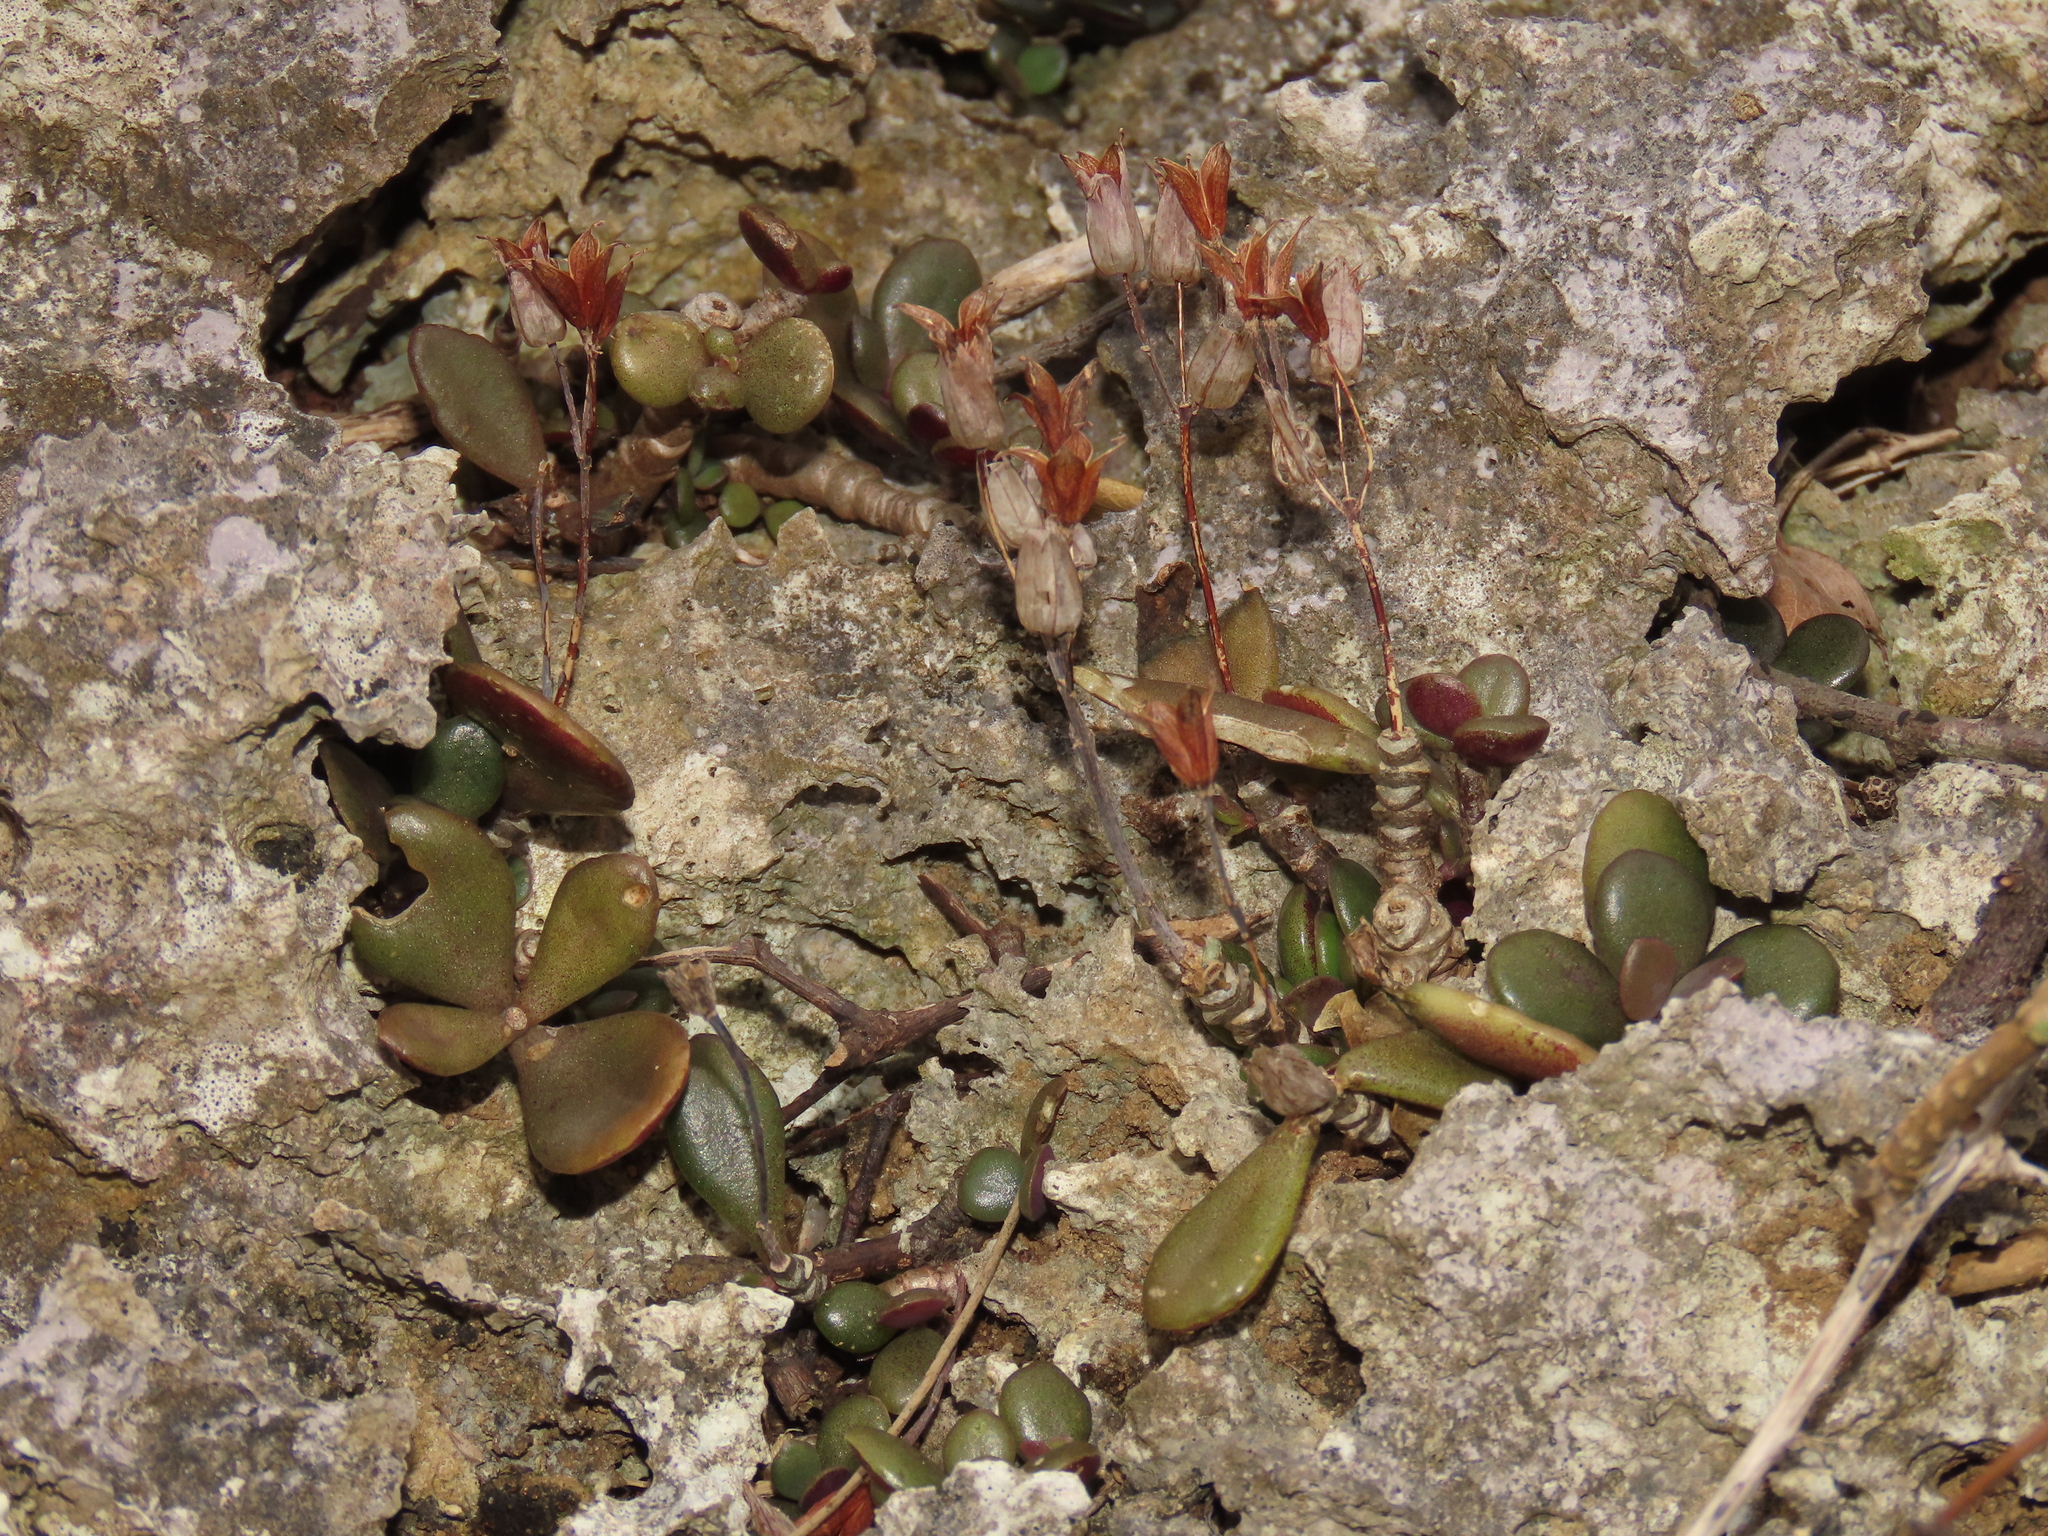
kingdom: Plantae
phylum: Tracheophyta
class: Magnoliopsida
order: Saxifragales
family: Crassulaceae
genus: Kalanchoe
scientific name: Kalanchoe integra
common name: Neverdie
